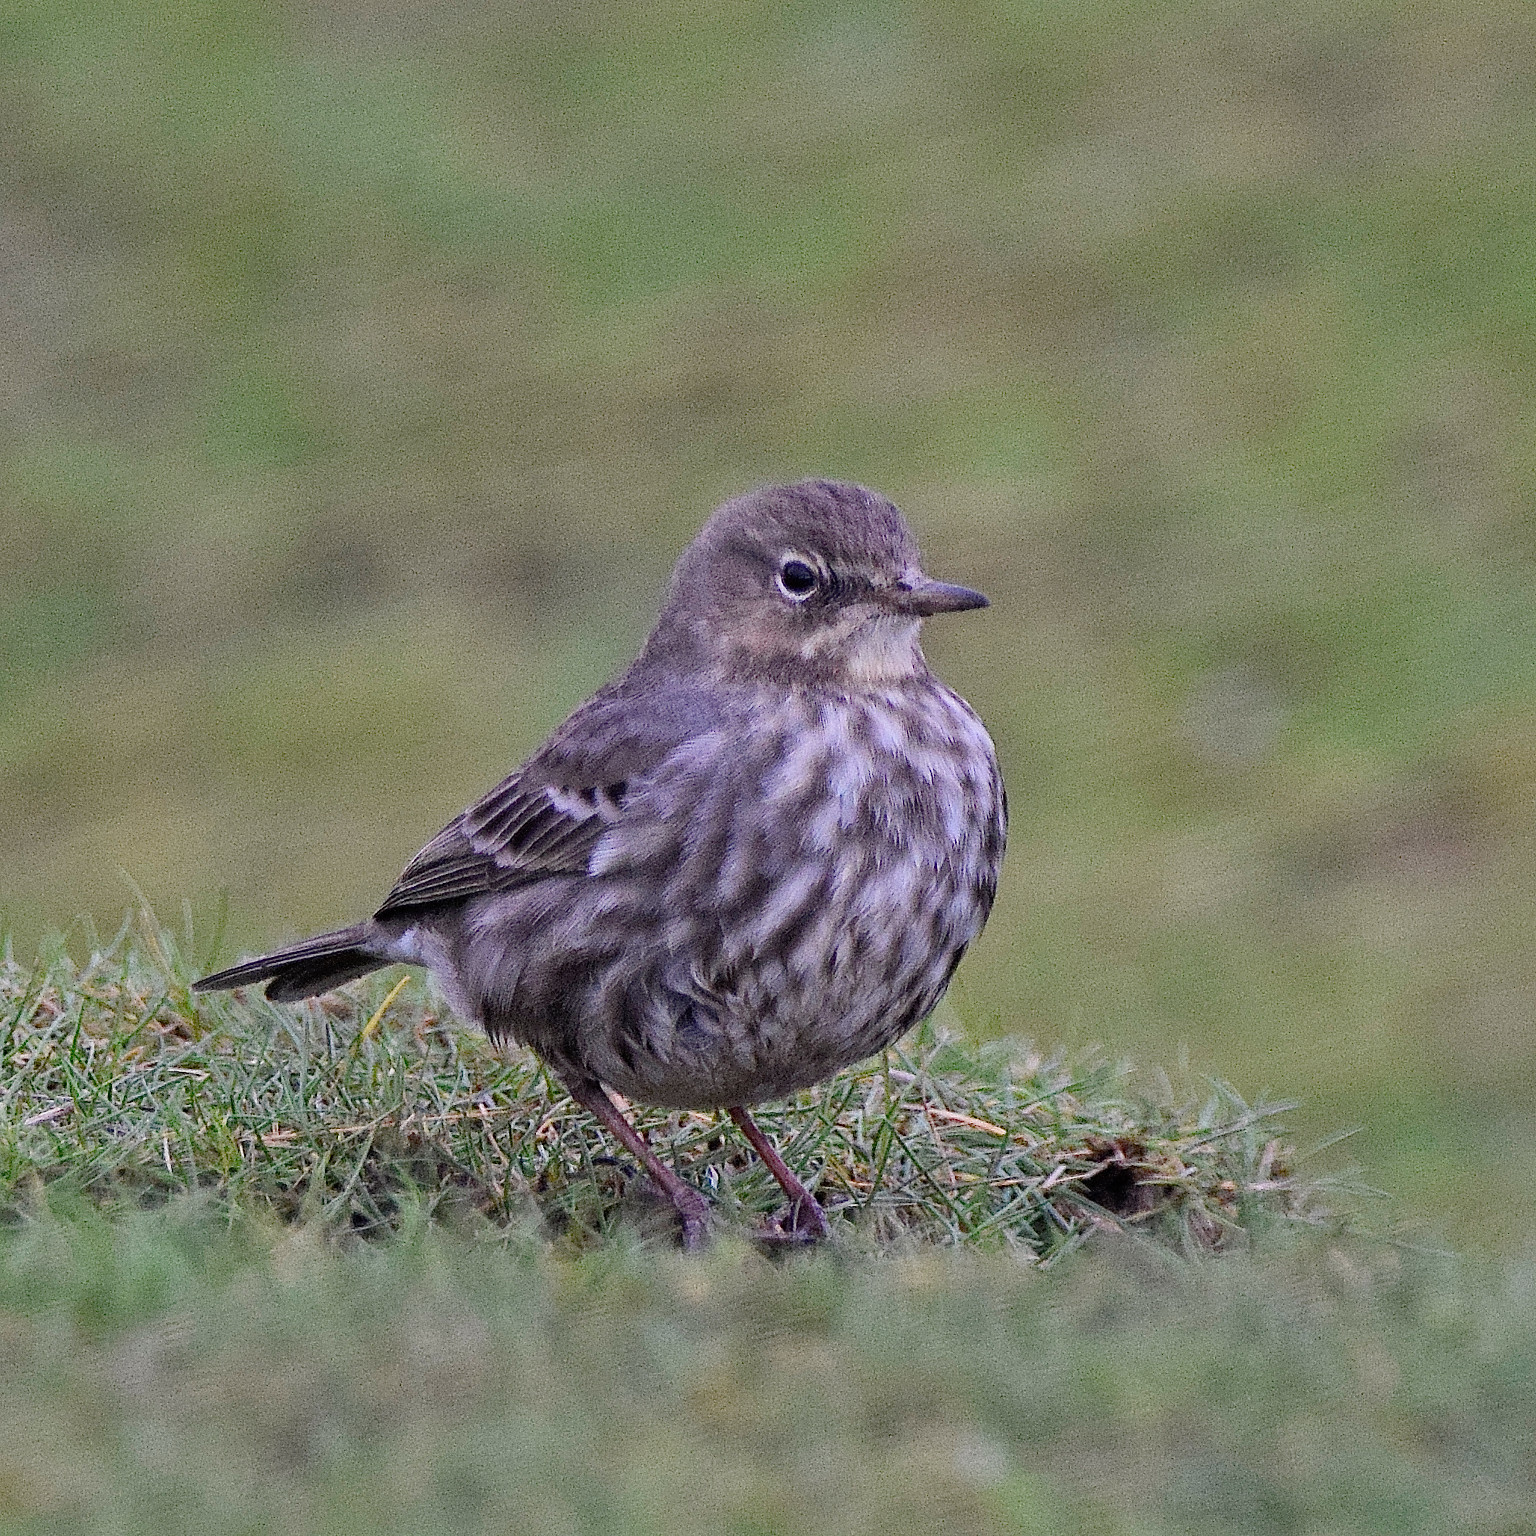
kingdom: Animalia
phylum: Chordata
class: Aves
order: Passeriformes
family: Motacillidae
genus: Anthus
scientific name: Anthus petrosus
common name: Eurasian rock pipit
